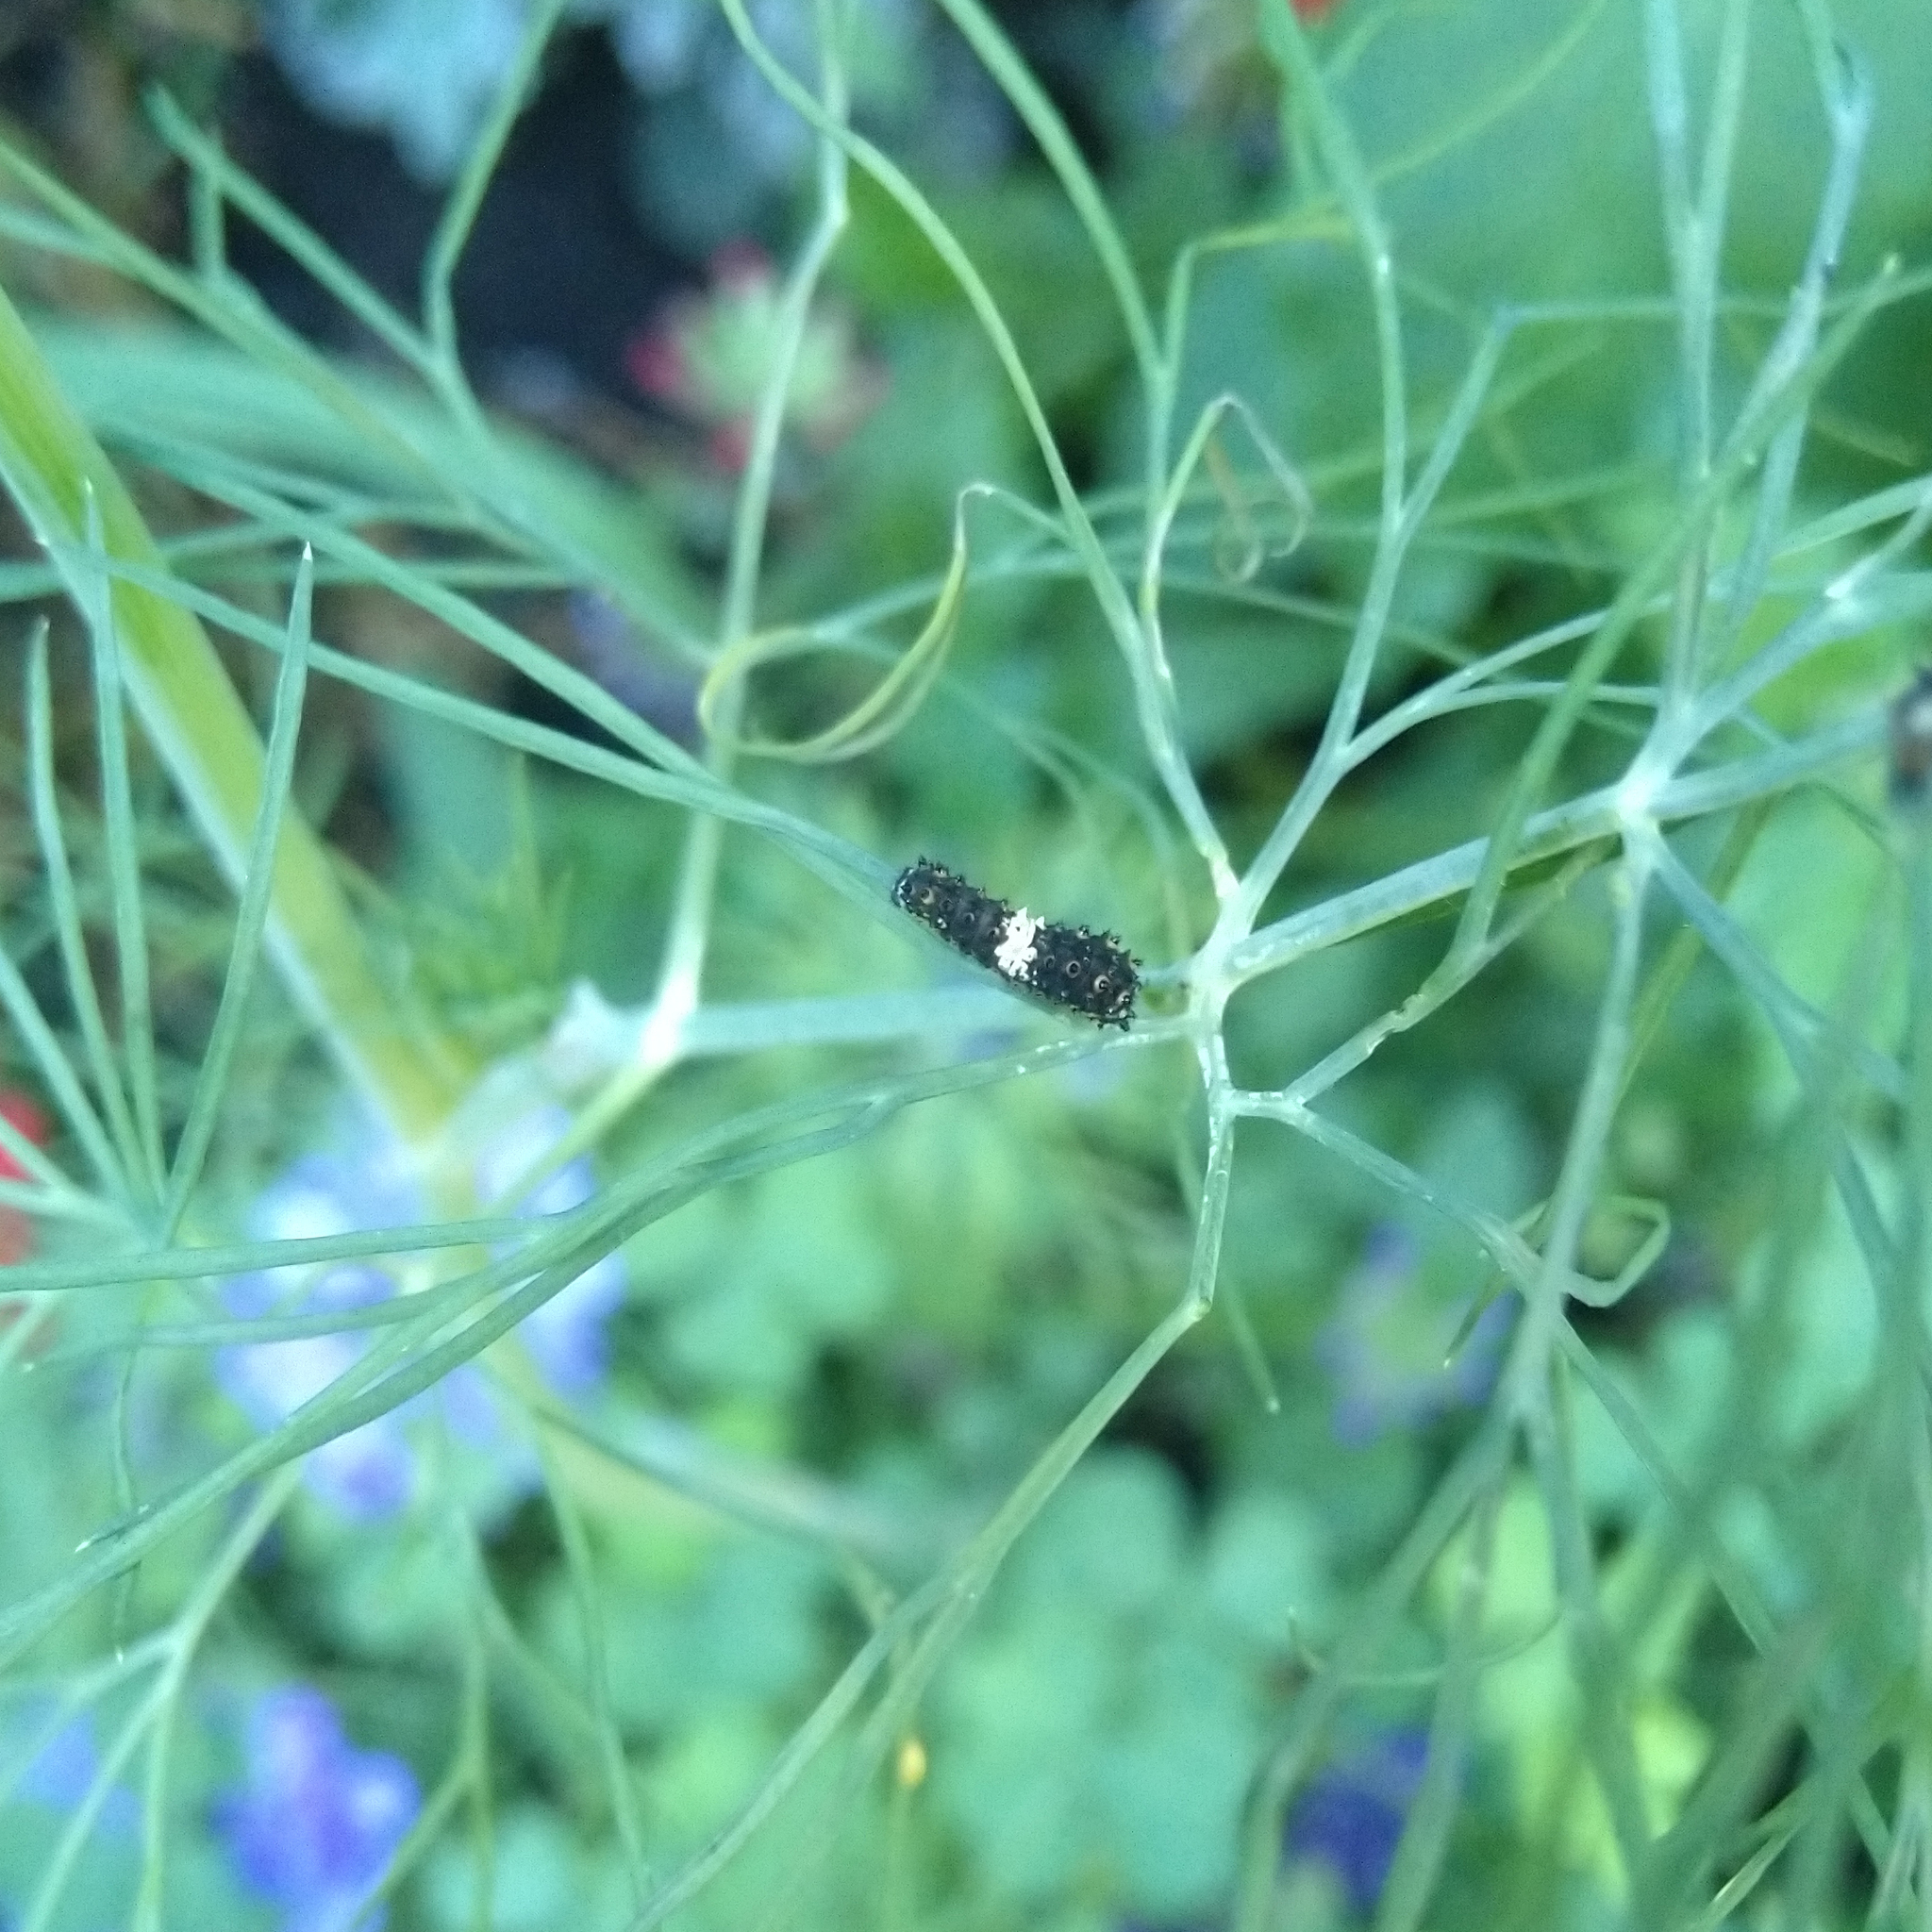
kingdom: Animalia
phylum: Arthropoda
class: Insecta
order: Lepidoptera
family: Papilionidae
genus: Papilio
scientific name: Papilio polyxenes
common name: Black swallowtail
